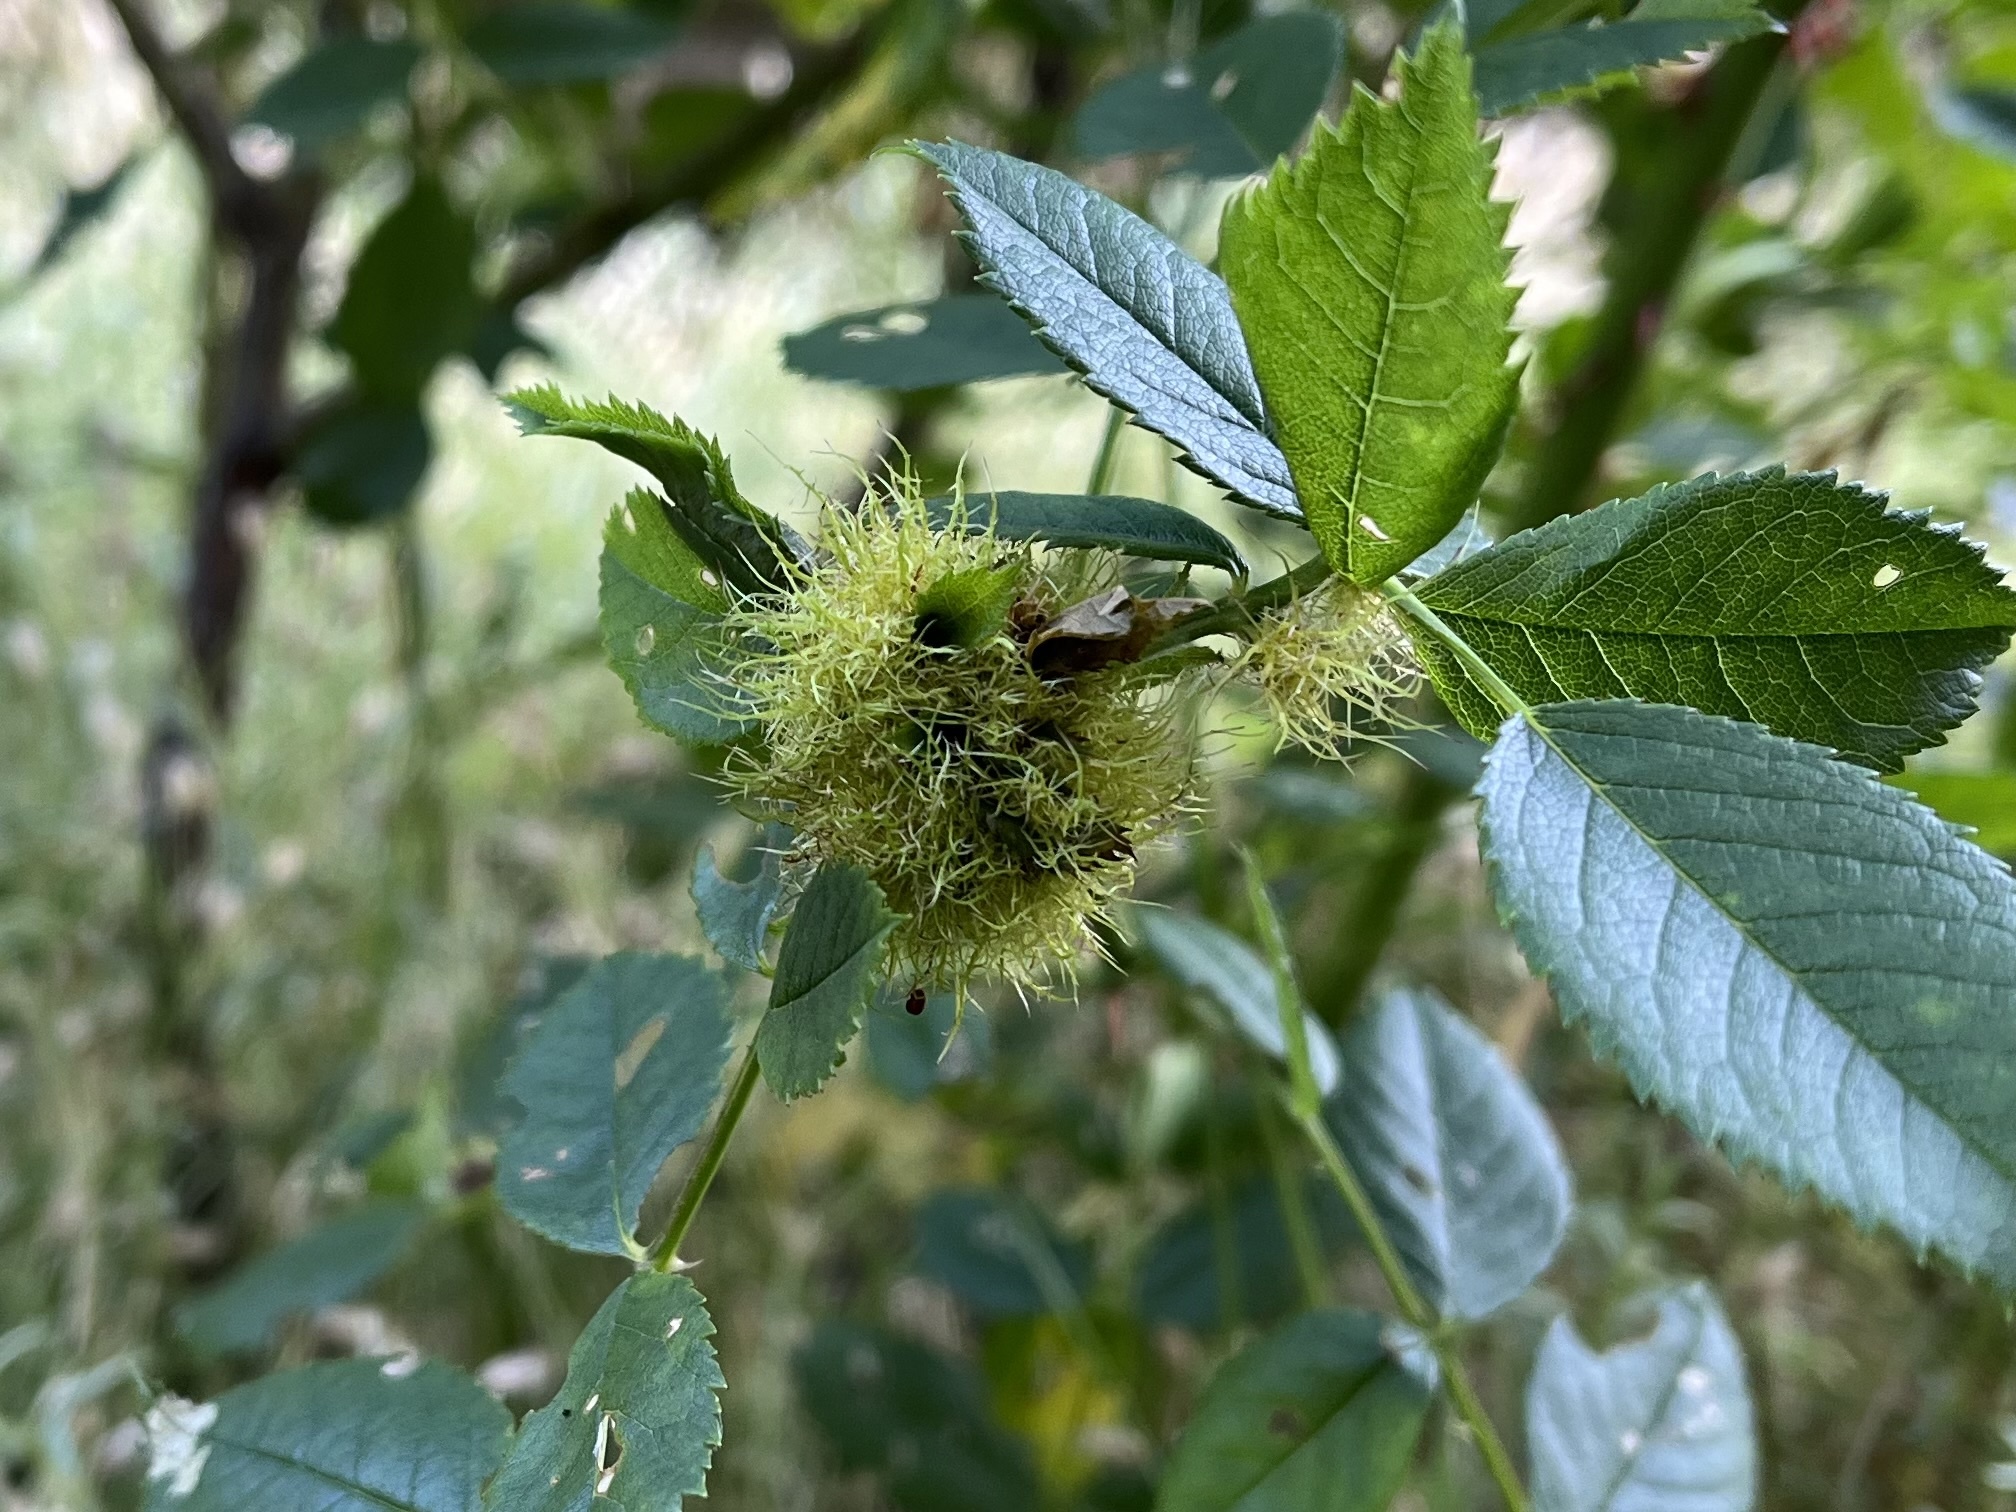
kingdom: Animalia
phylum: Arthropoda
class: Insecta
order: Hymenoptera
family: Cynipidae
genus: Diplolepis
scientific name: Diplolepis rosae
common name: Bedeguar gall
